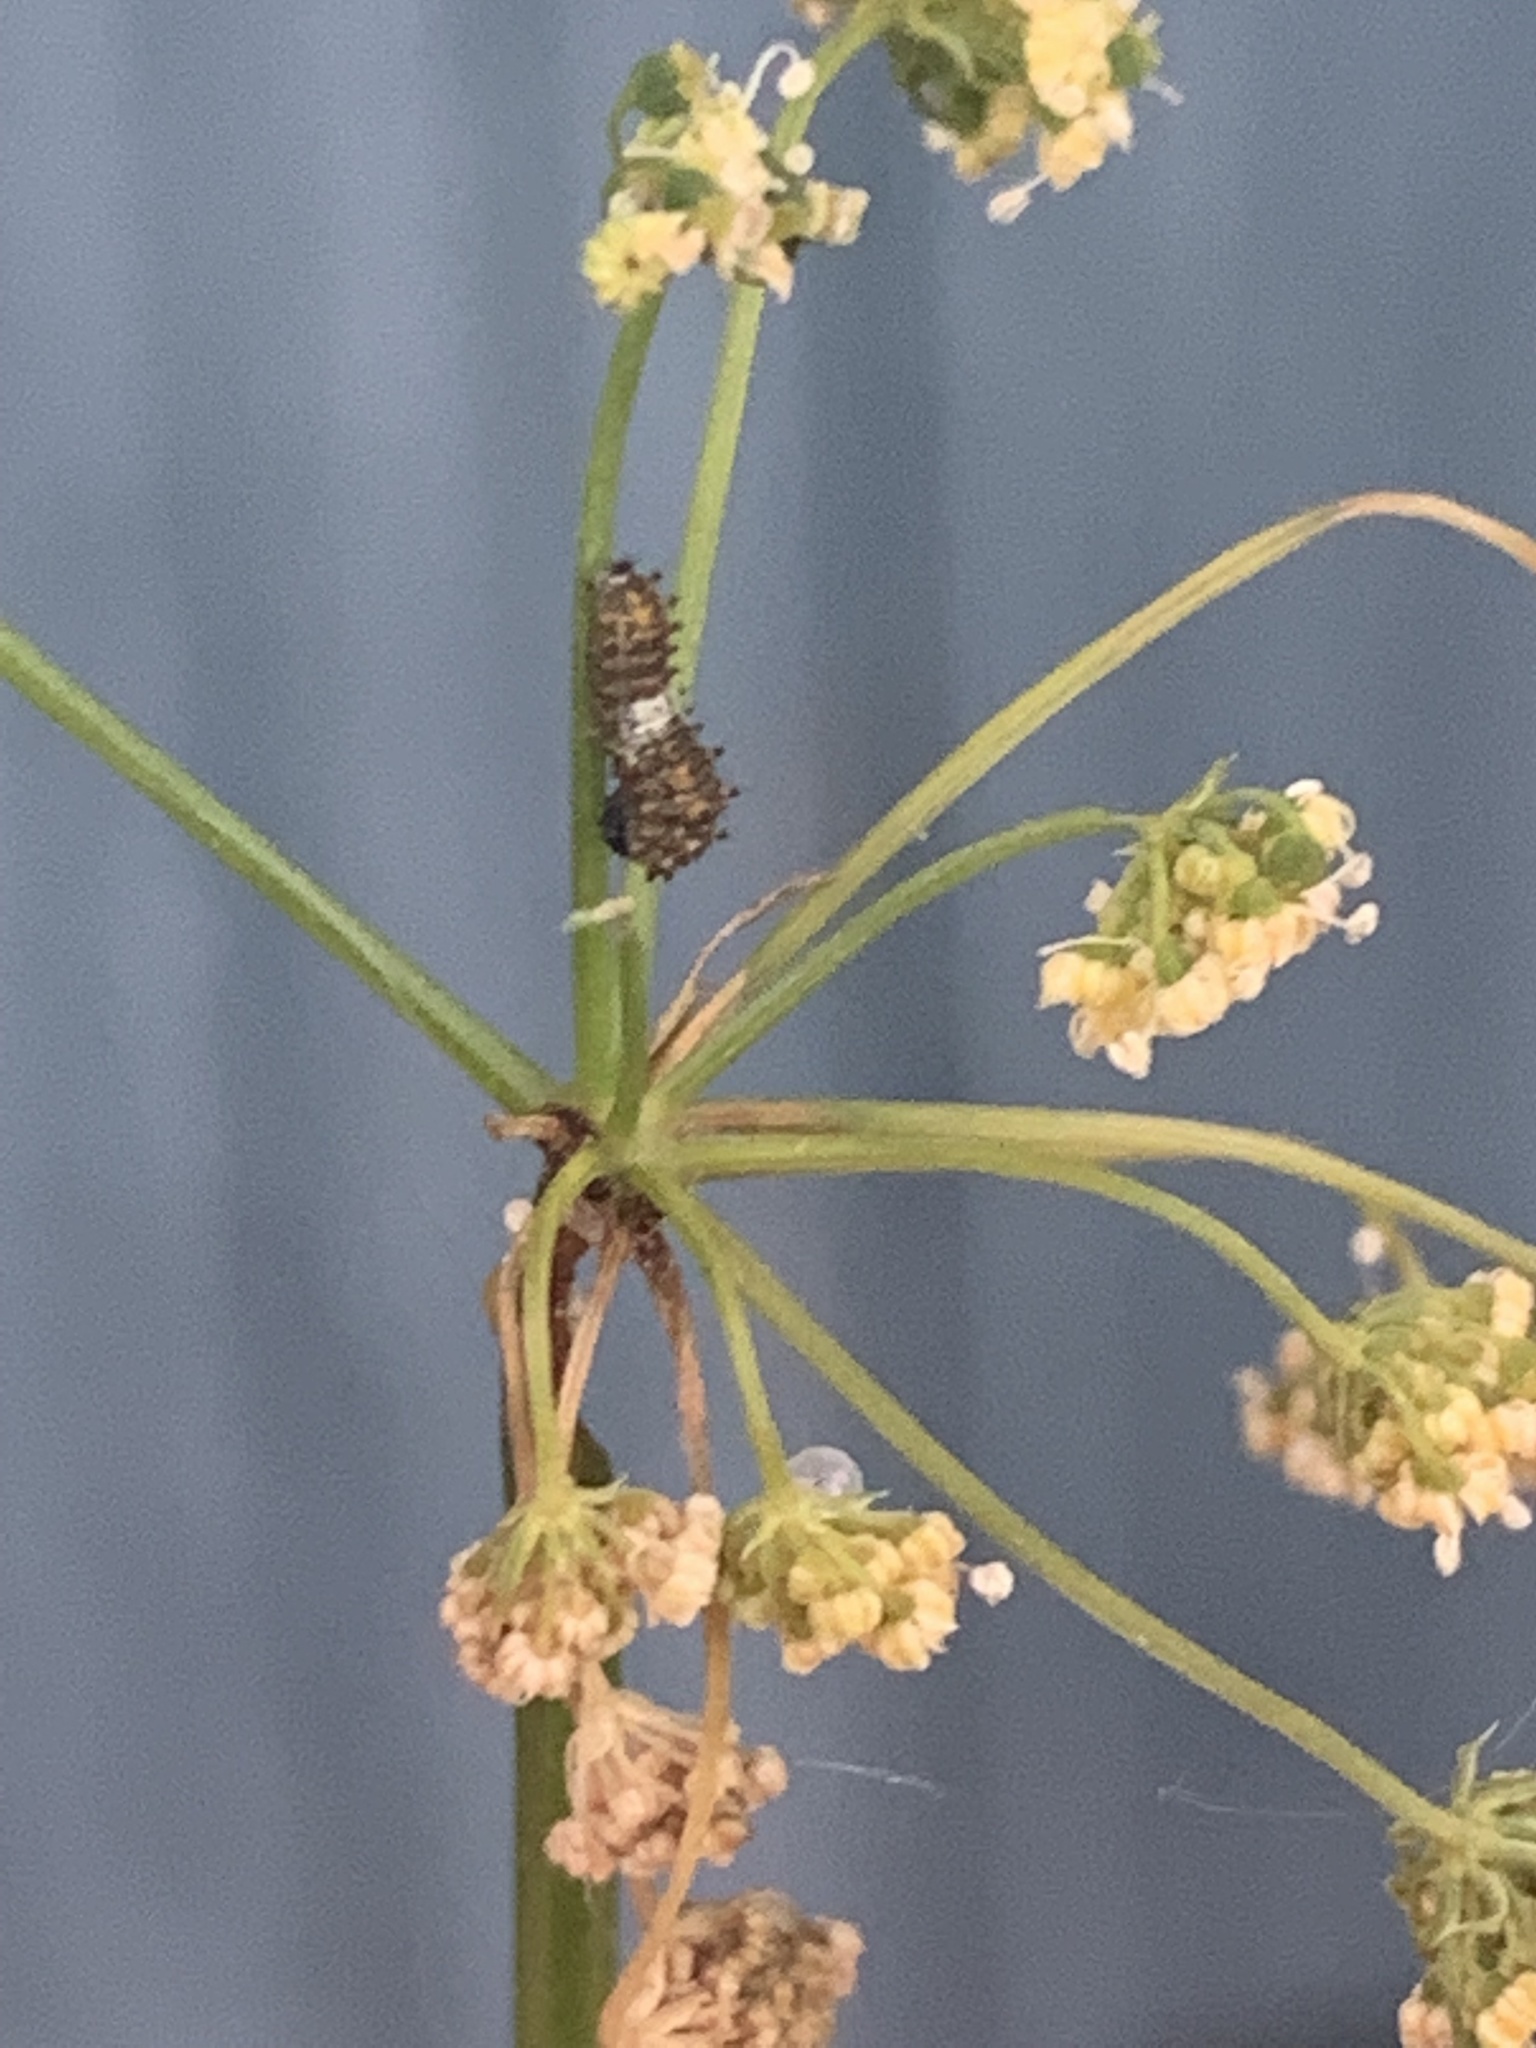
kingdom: Animalia
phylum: Arthropoda
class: Insecta
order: Lepidoptera
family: Papilionidae
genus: Papilio
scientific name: Papilio polyxenes
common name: Black swallowtail
